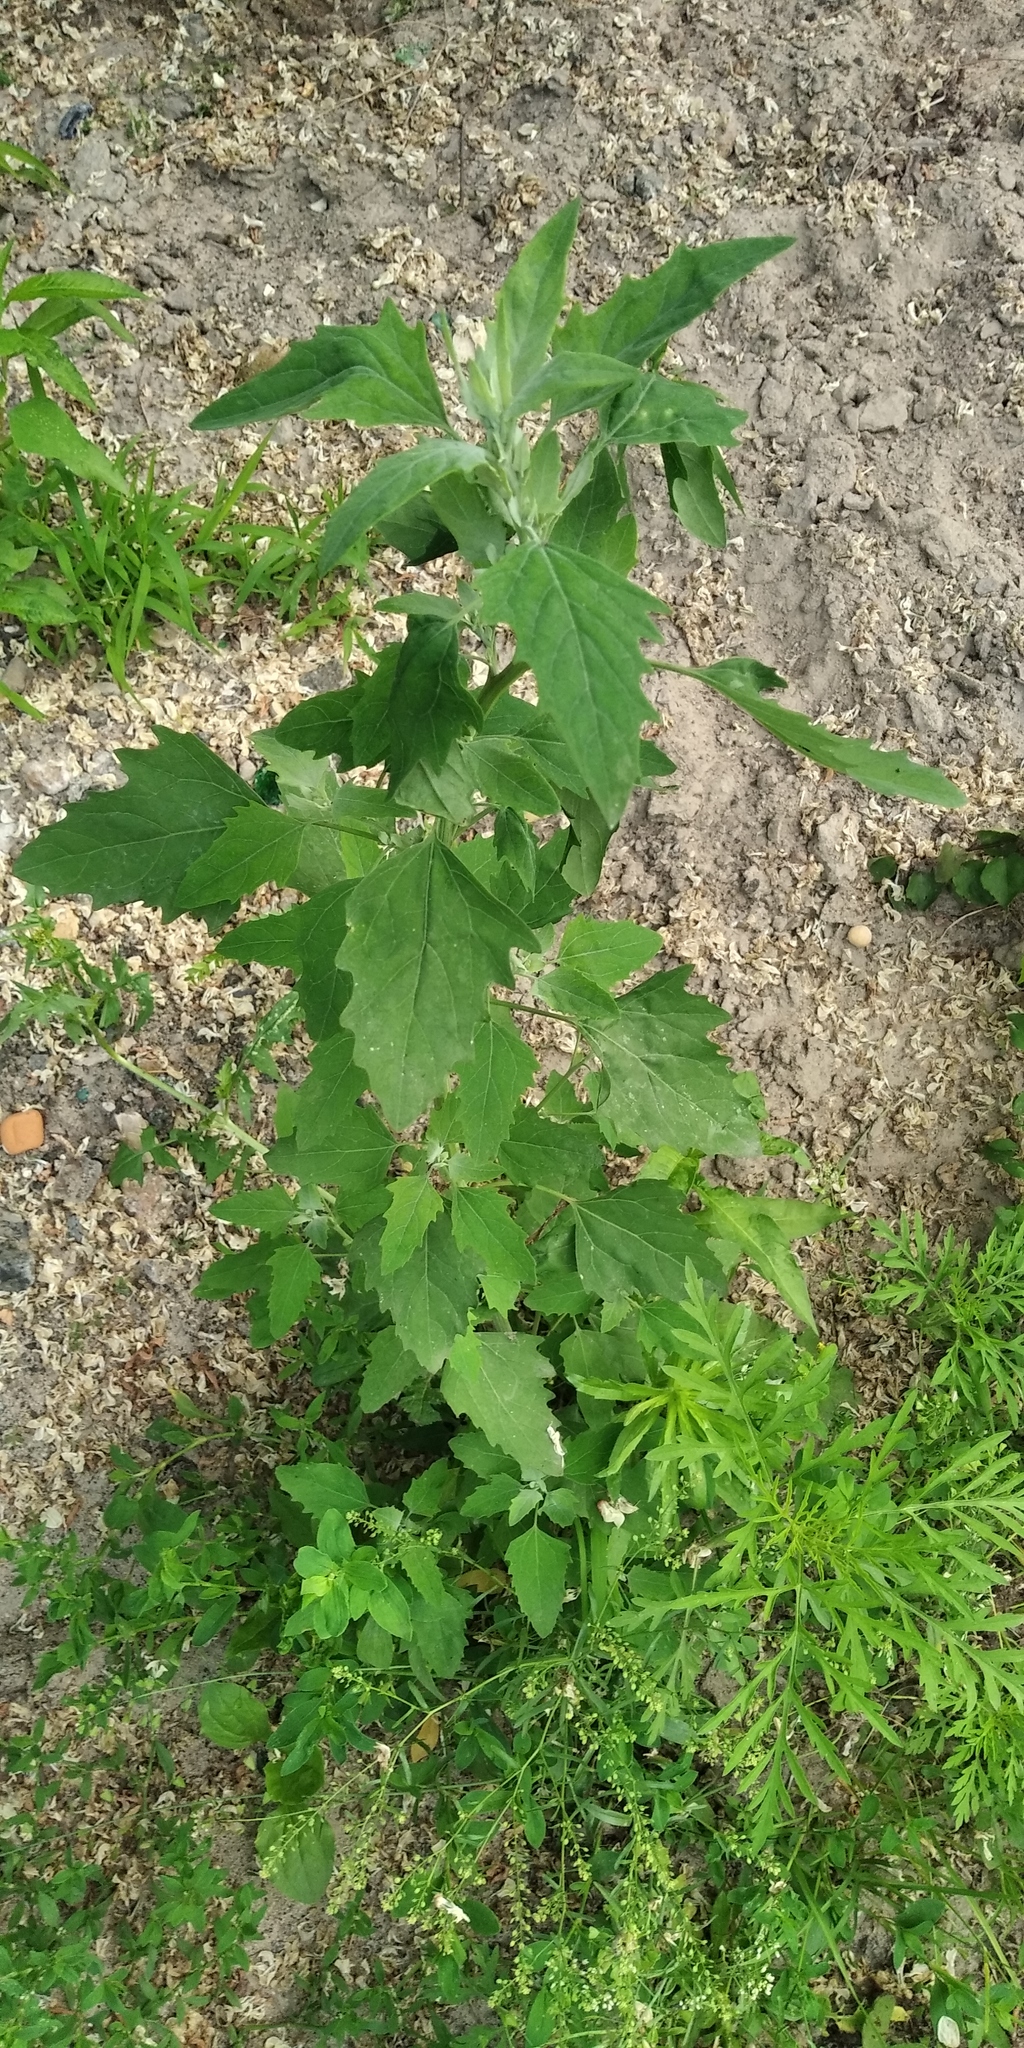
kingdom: Plantae
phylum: Tracheophyta
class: Magnoliopsida
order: Caryophyllales
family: Amaranthaceae
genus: Chenopodium
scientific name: Chenopodium album
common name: Fat-hen
